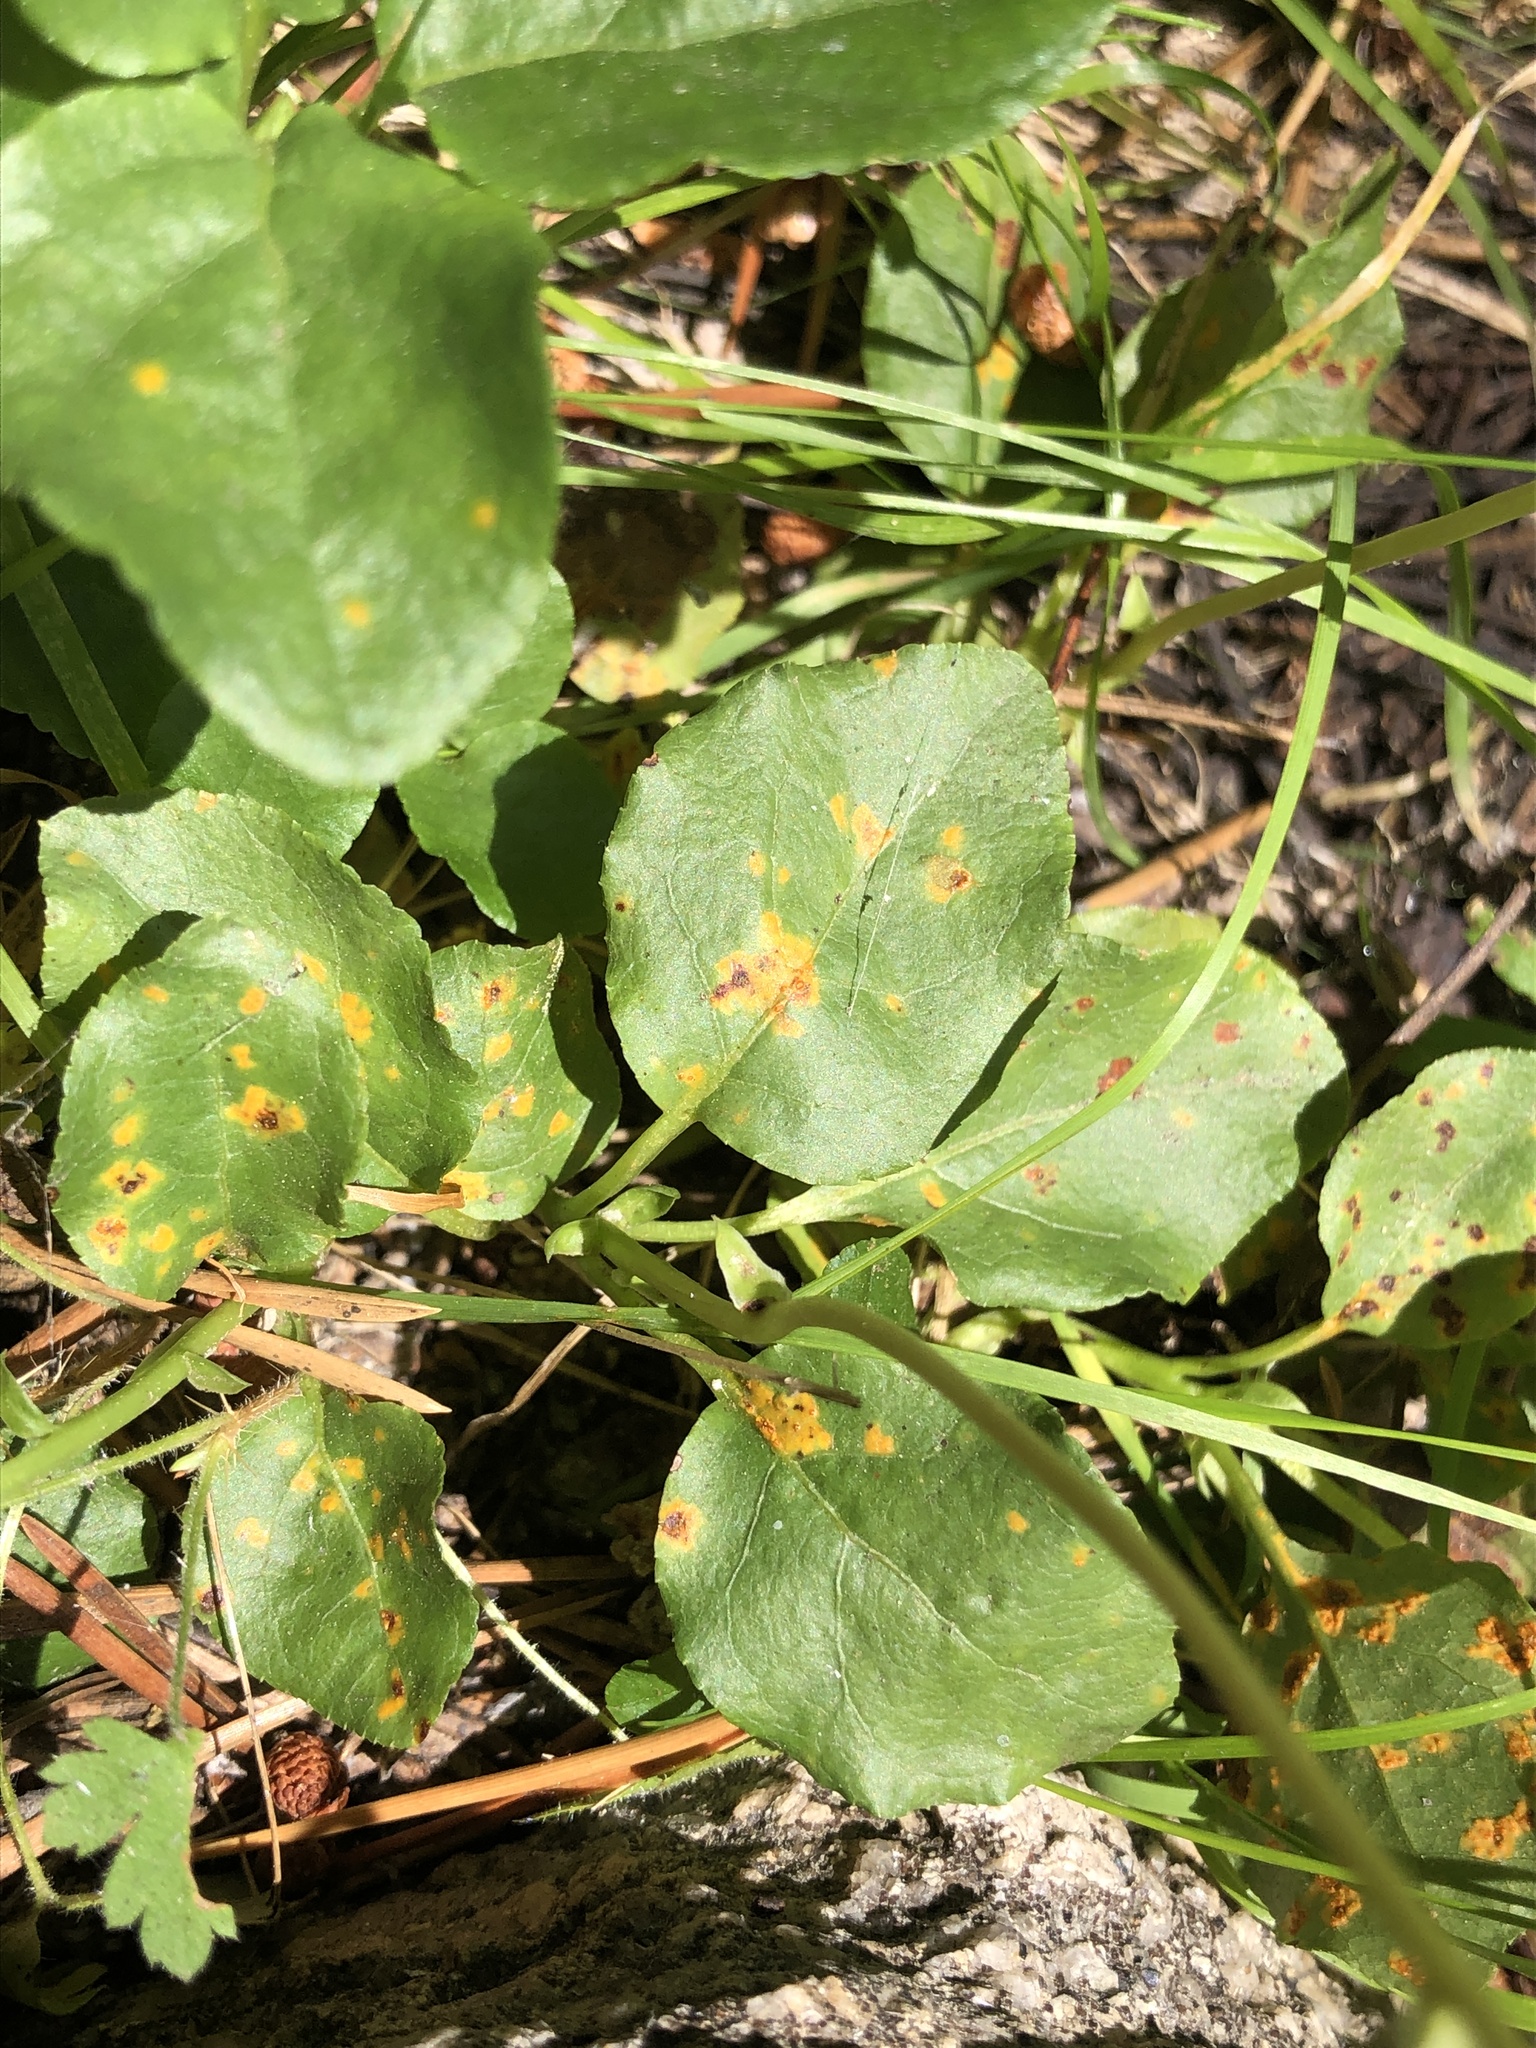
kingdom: Plantae
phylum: Tracheophyta
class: Magnoliopsida
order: Ericales
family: Ericaceae
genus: Orthilia
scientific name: Orthilia secunda
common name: One-sided orthilia
